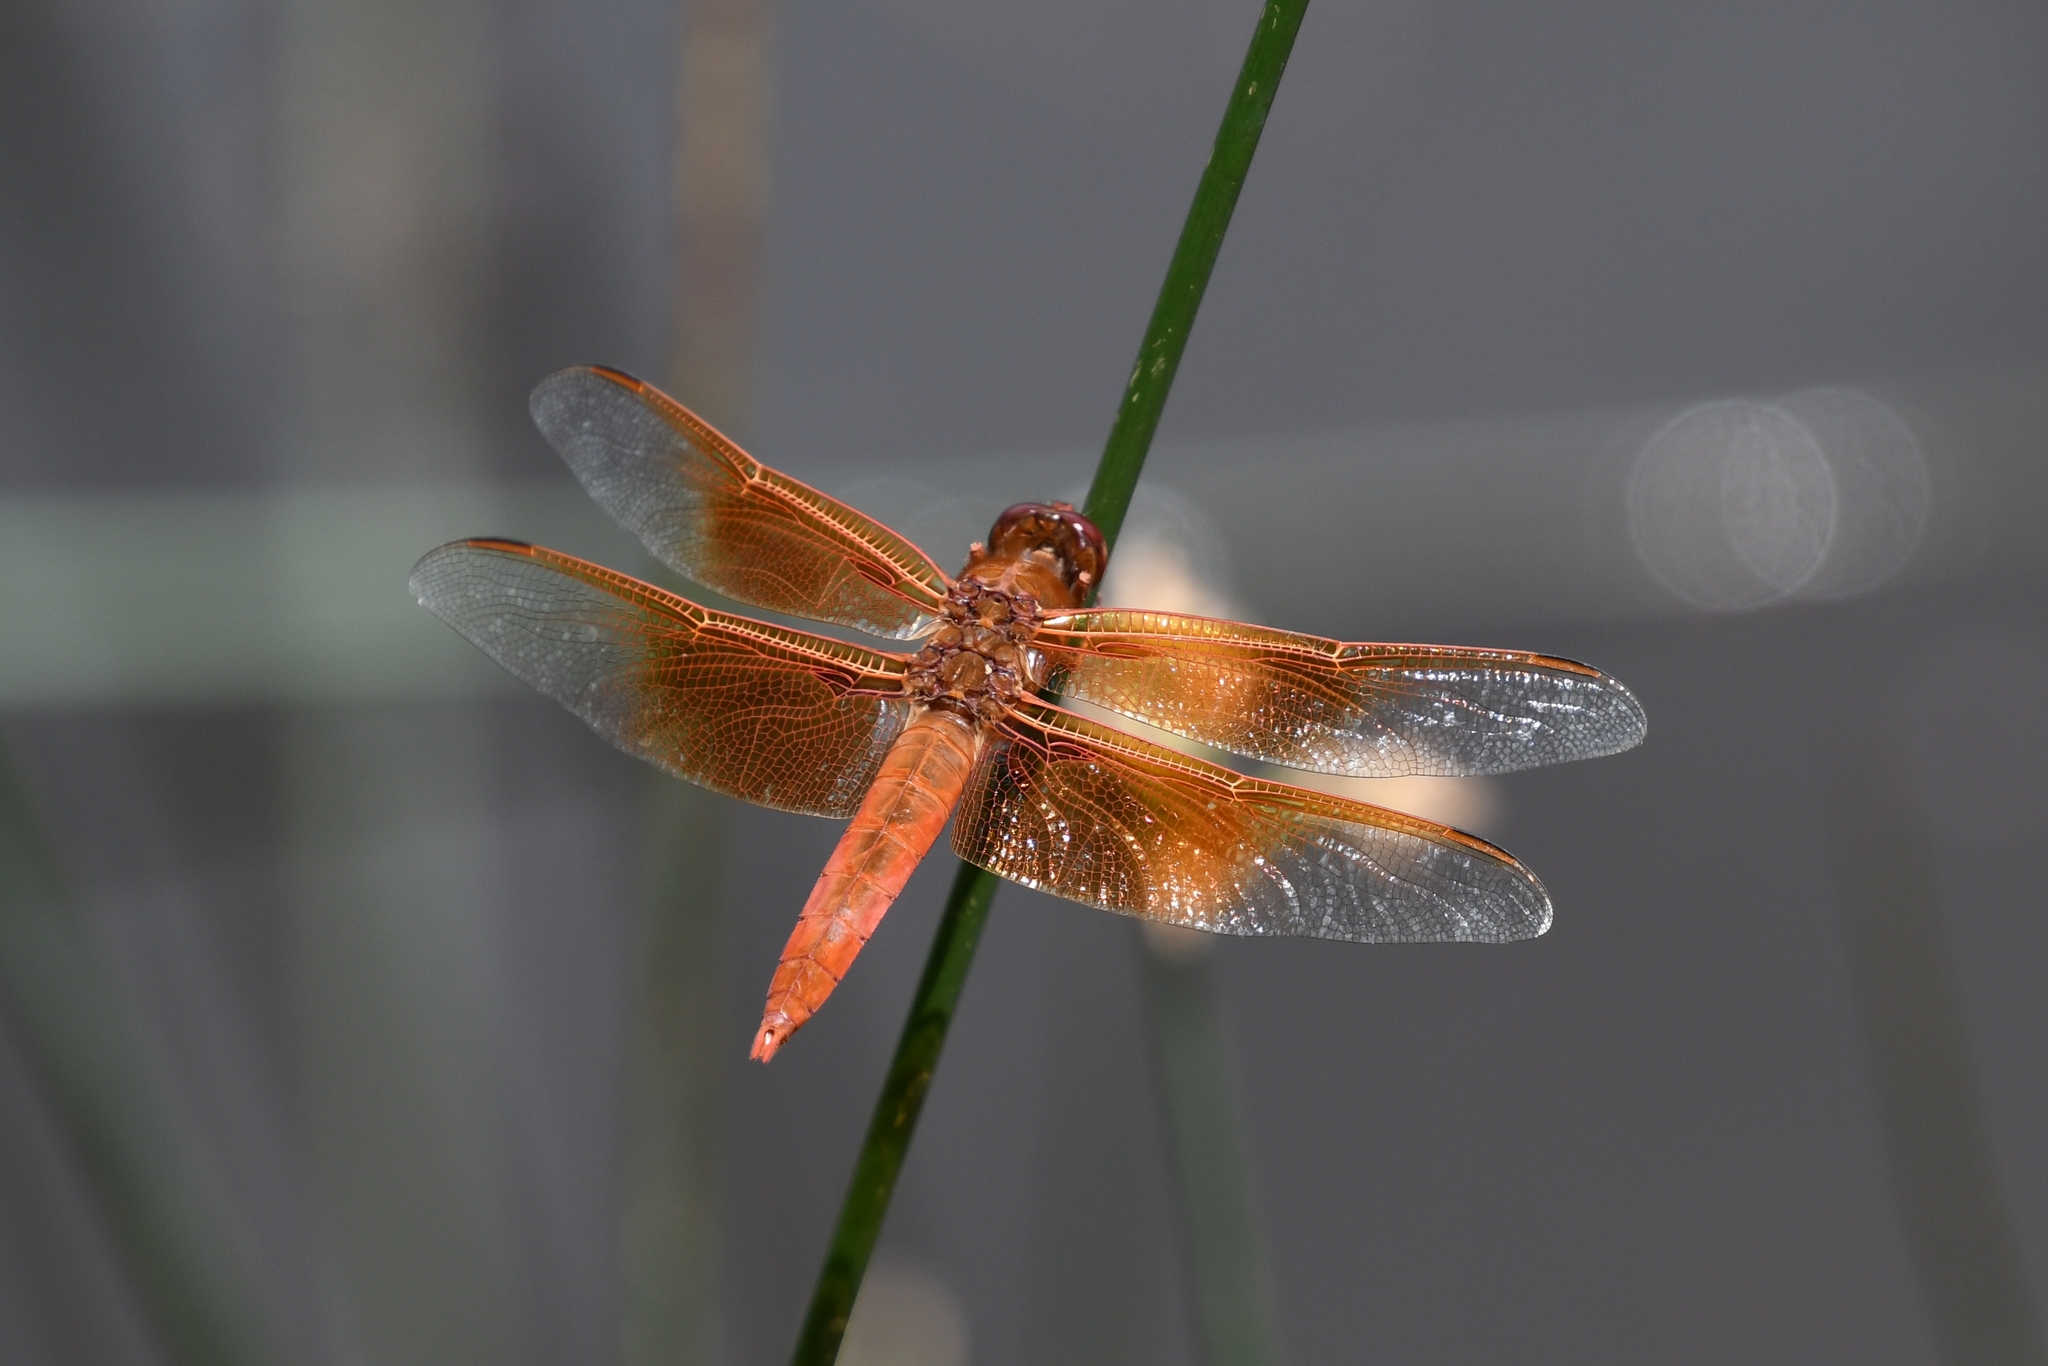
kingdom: Animalia
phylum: Arthropoda
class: Insecta
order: Odonata
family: Libellulidae
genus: Libellula
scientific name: Libellula saturata
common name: Flame skimmer
